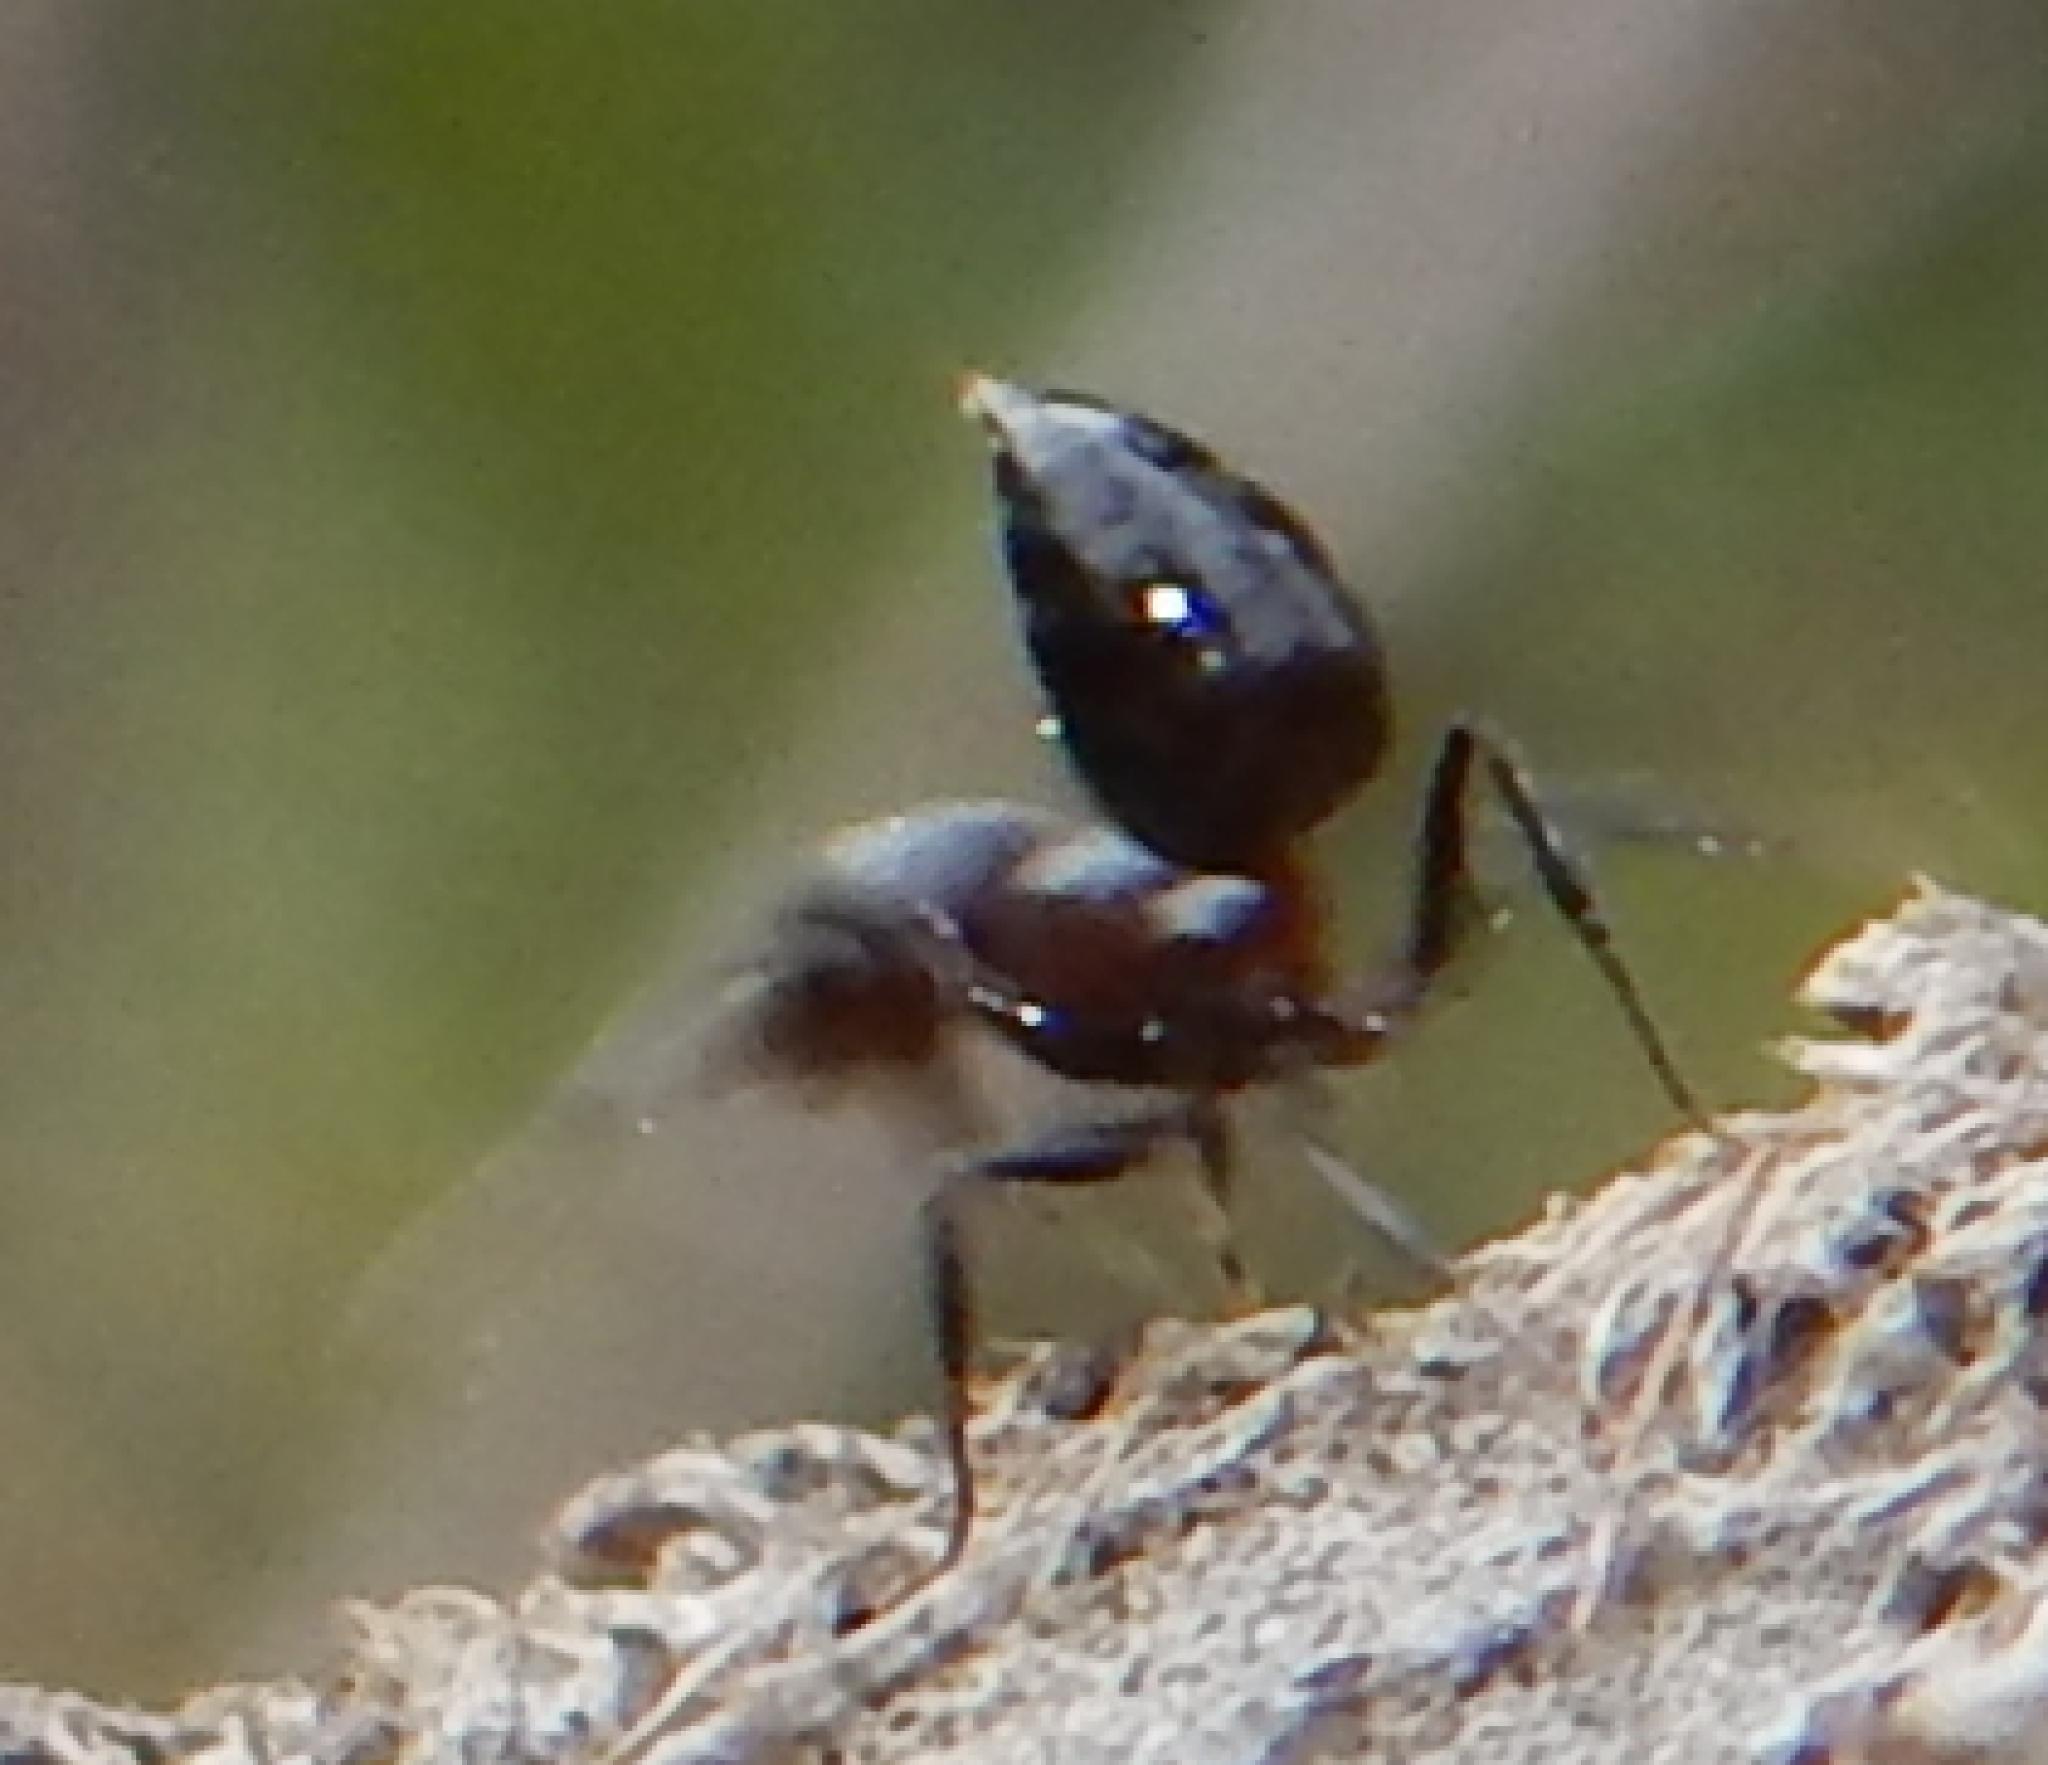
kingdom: Animalia
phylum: Arthropoda
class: Insecta
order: Hymenoptera
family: Formicidae
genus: Crematogaster
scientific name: Crematogaster peringueyi
